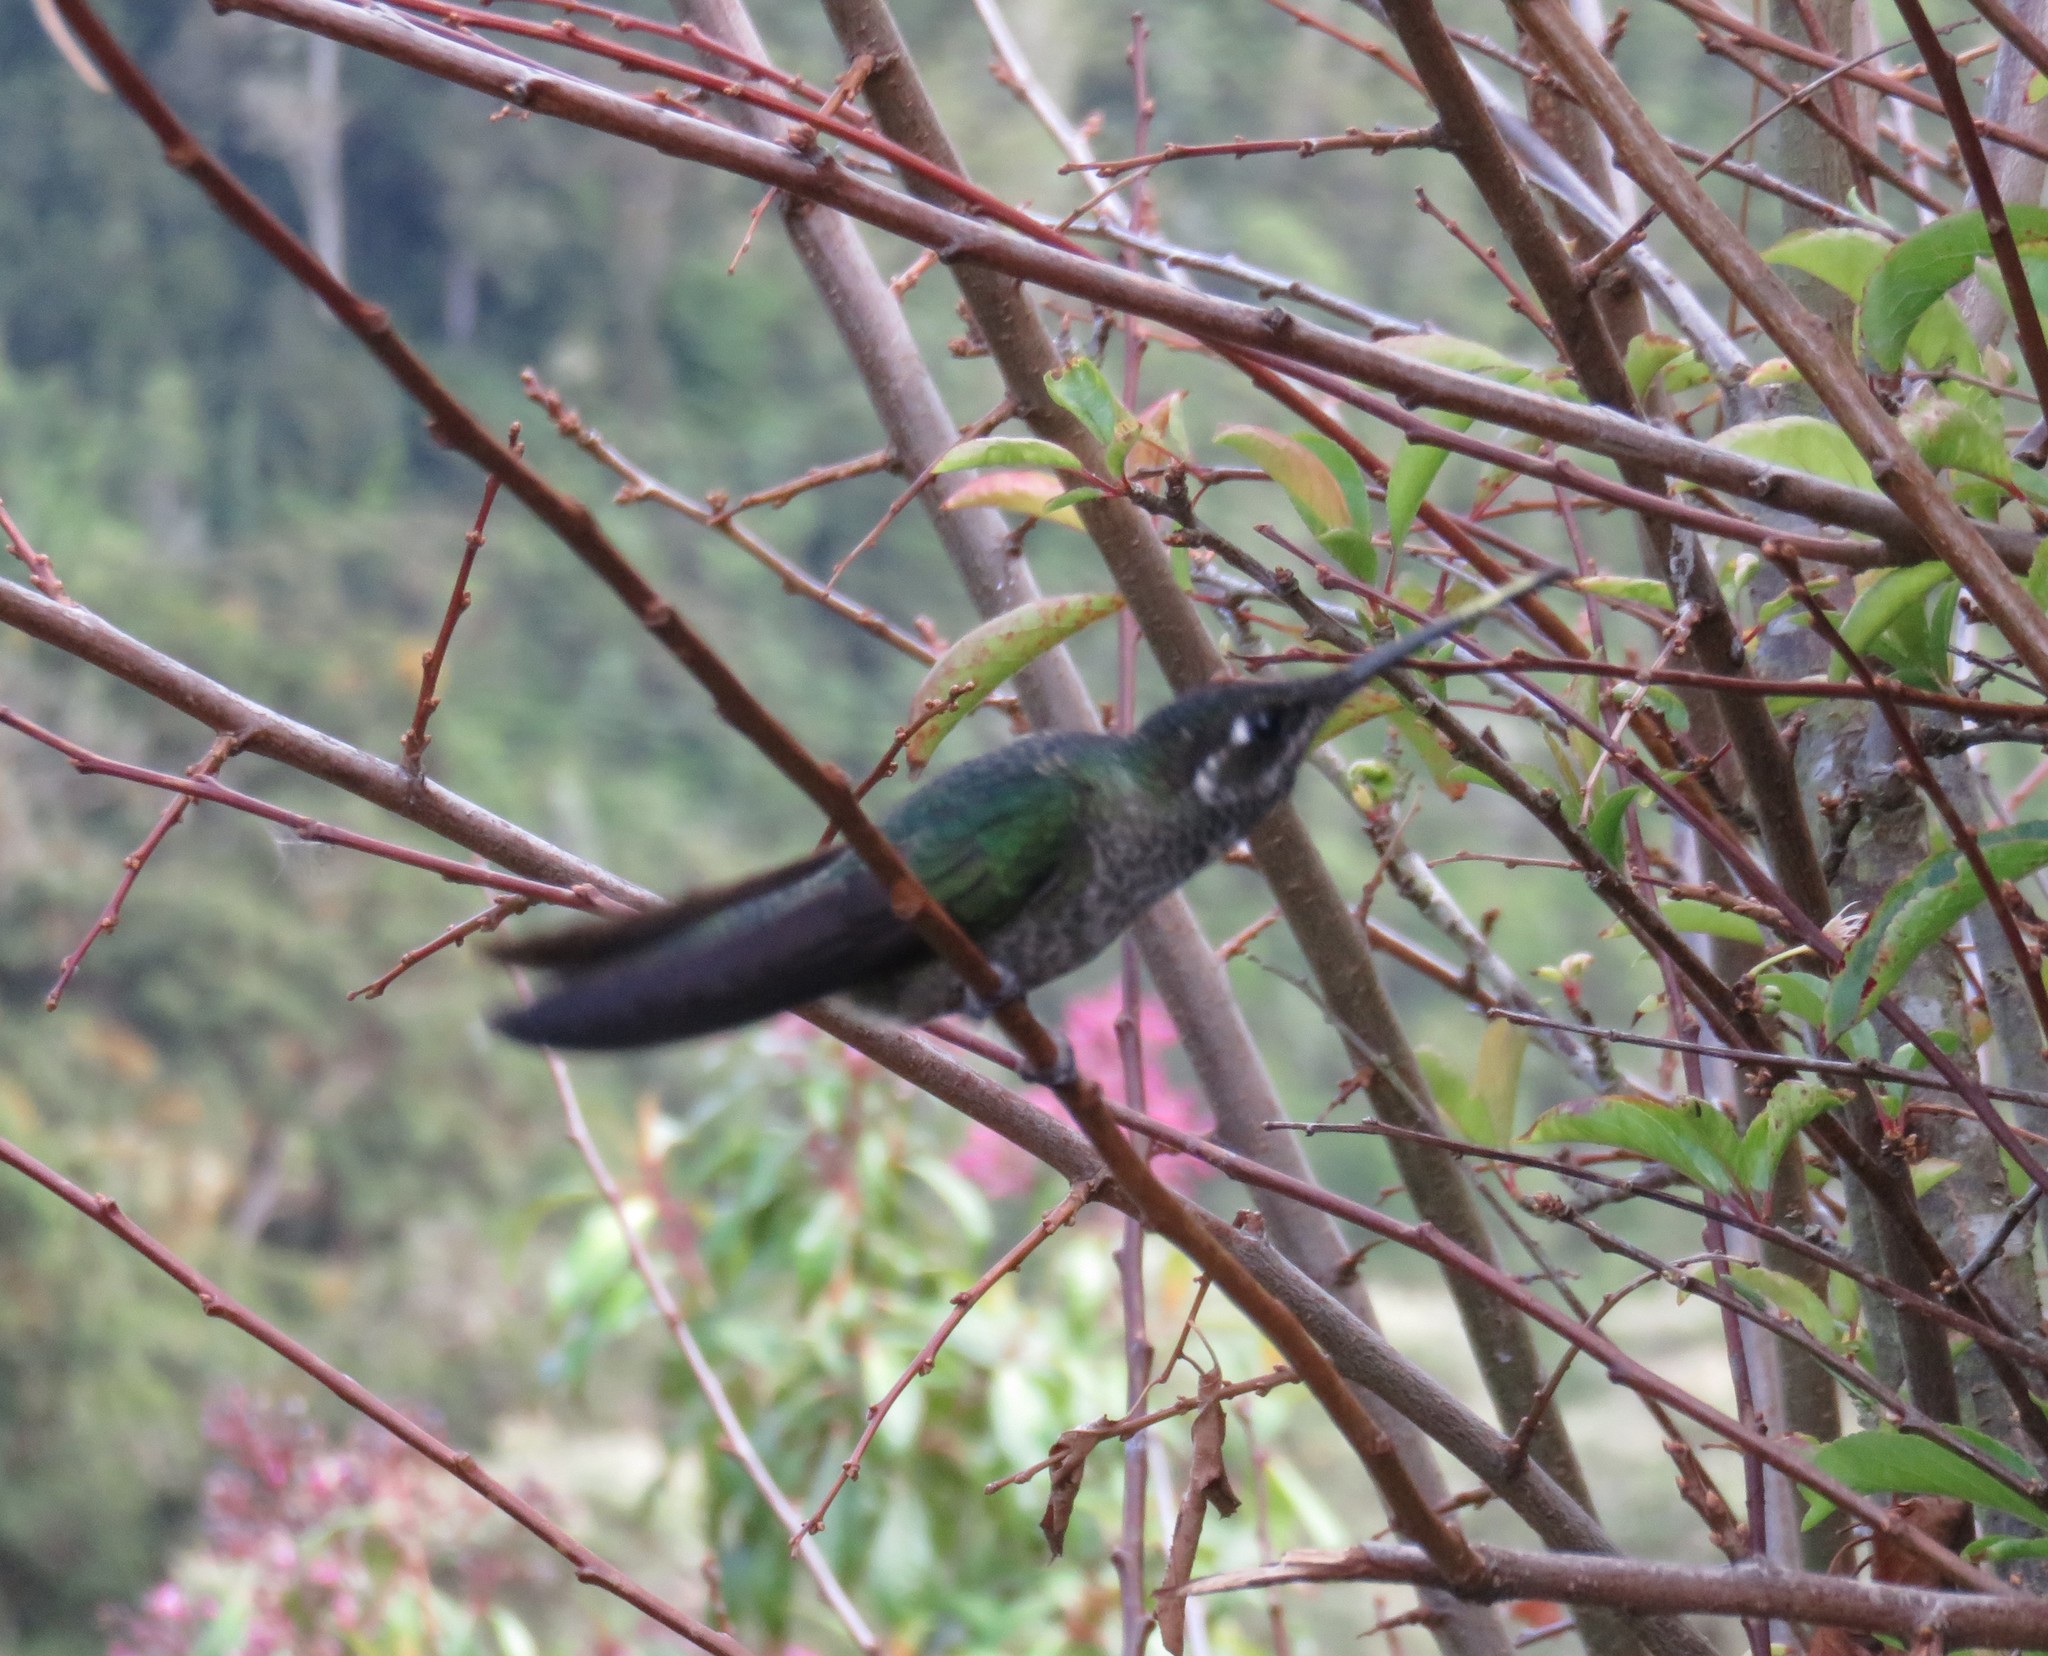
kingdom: Animalia
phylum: Chordata
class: Aves
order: Apodiformes
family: Trochilidae
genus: Eugenes
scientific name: Eugenes spectabilis
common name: Talamanca hummingbird
